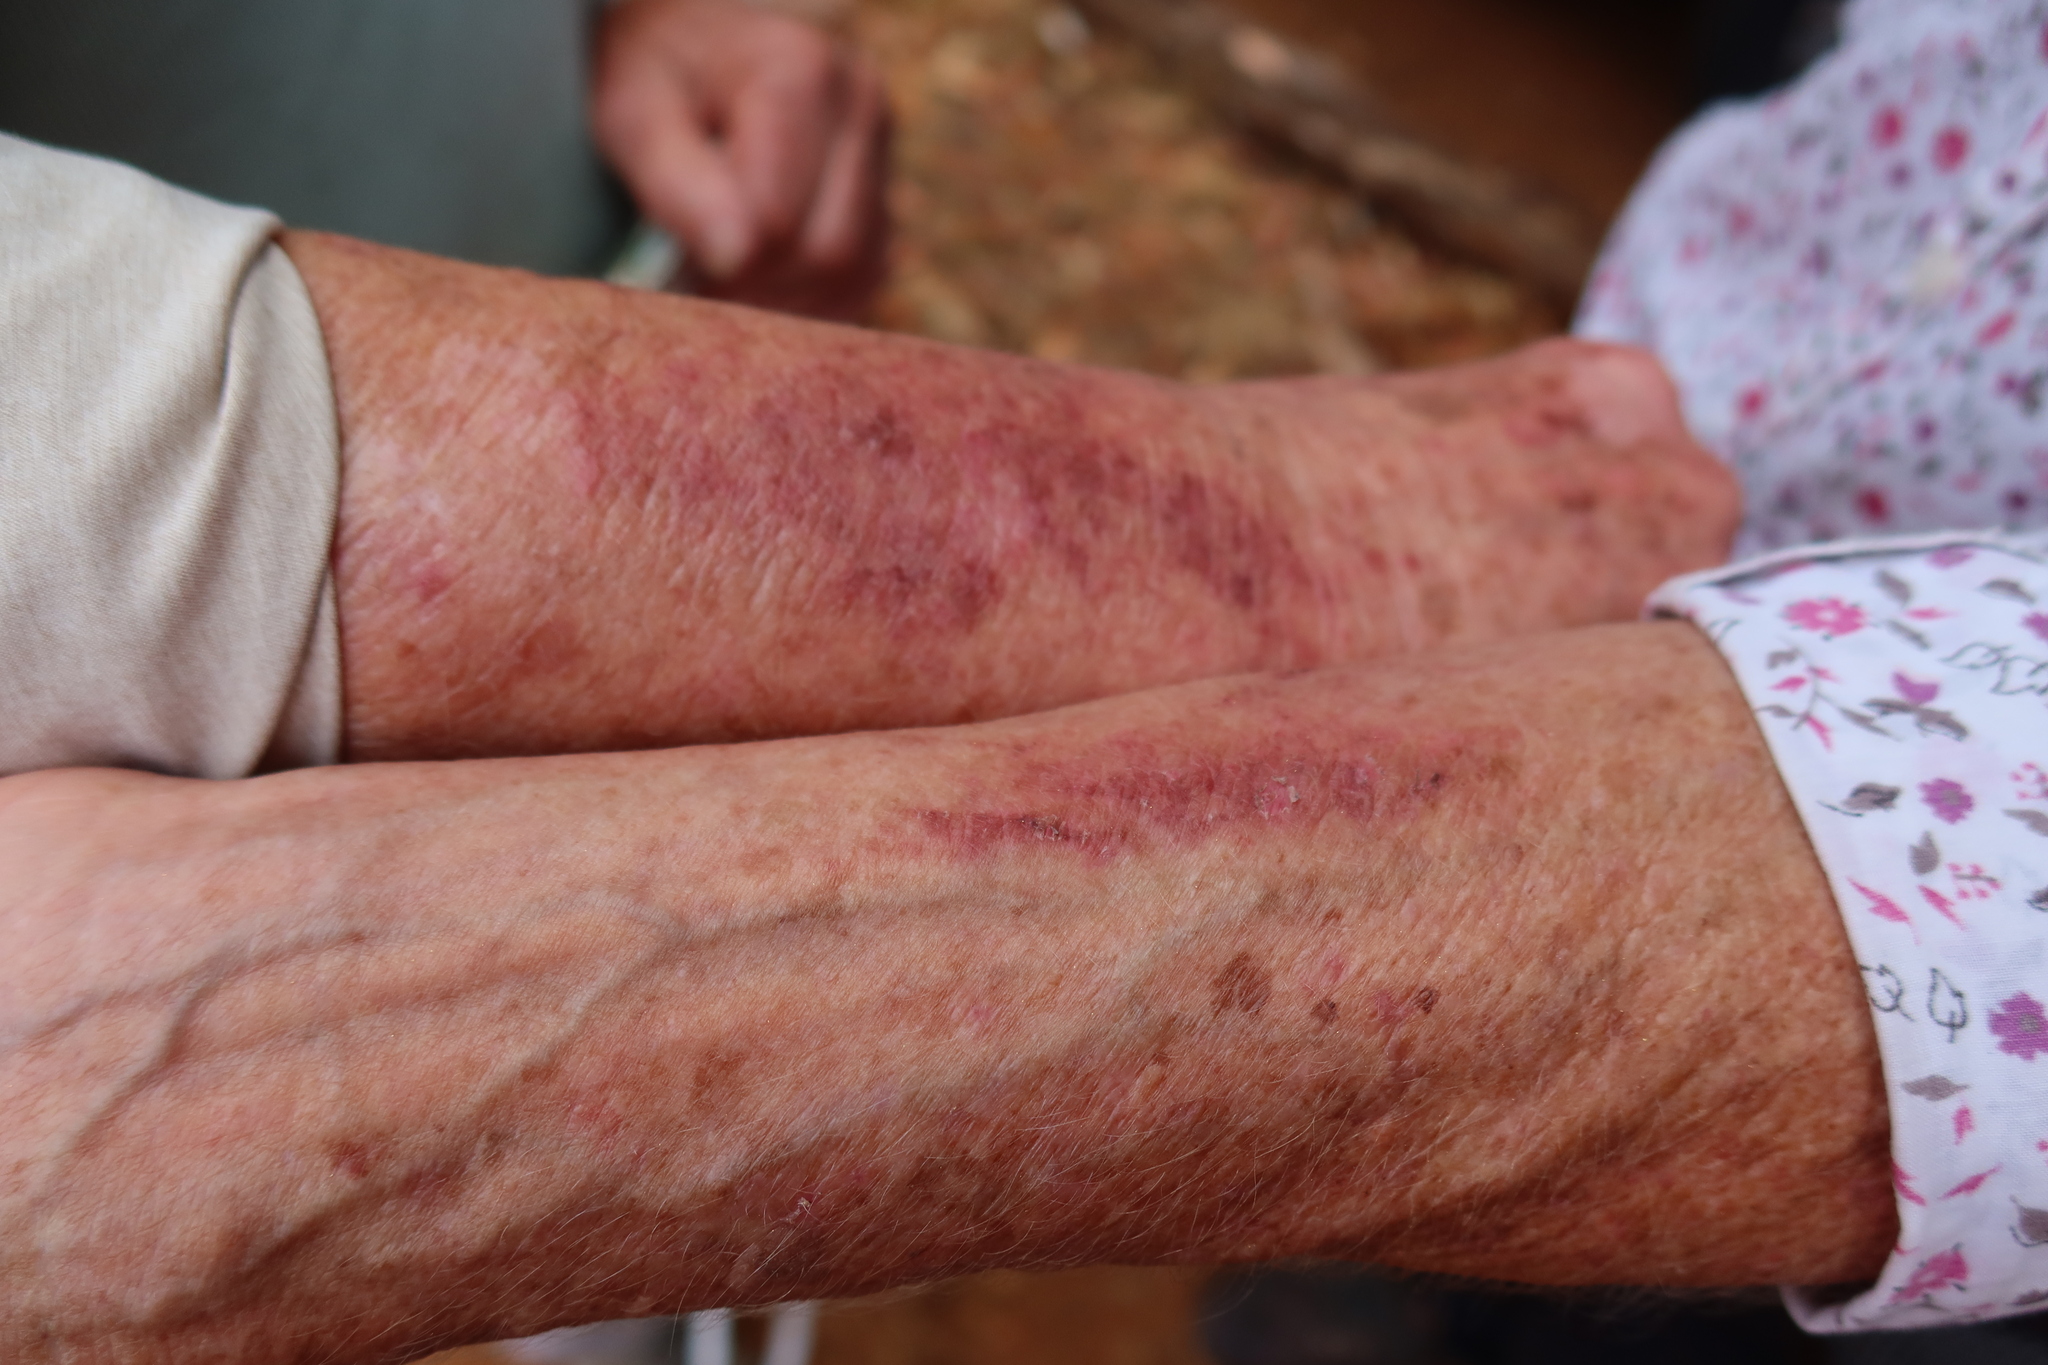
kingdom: Plantae
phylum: Tracheophyta
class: Magnoliopsida
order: Apiales
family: Apiaceae
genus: Notobubon
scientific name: Notobubon galbanum
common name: Blisterbush
